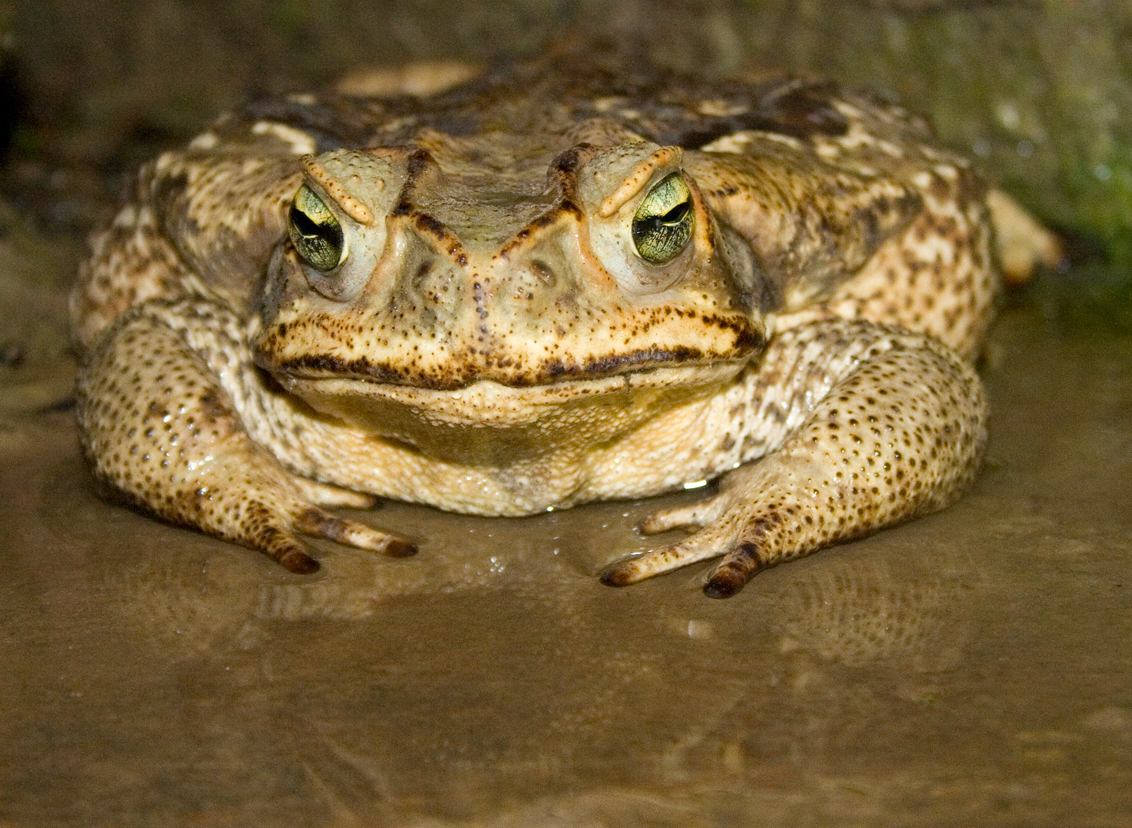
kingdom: Animalia
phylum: Chordata
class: Amphibia
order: Anura
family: Bufonidae
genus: Rhinella
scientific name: Rhinella diptycha
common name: Cope's toad
